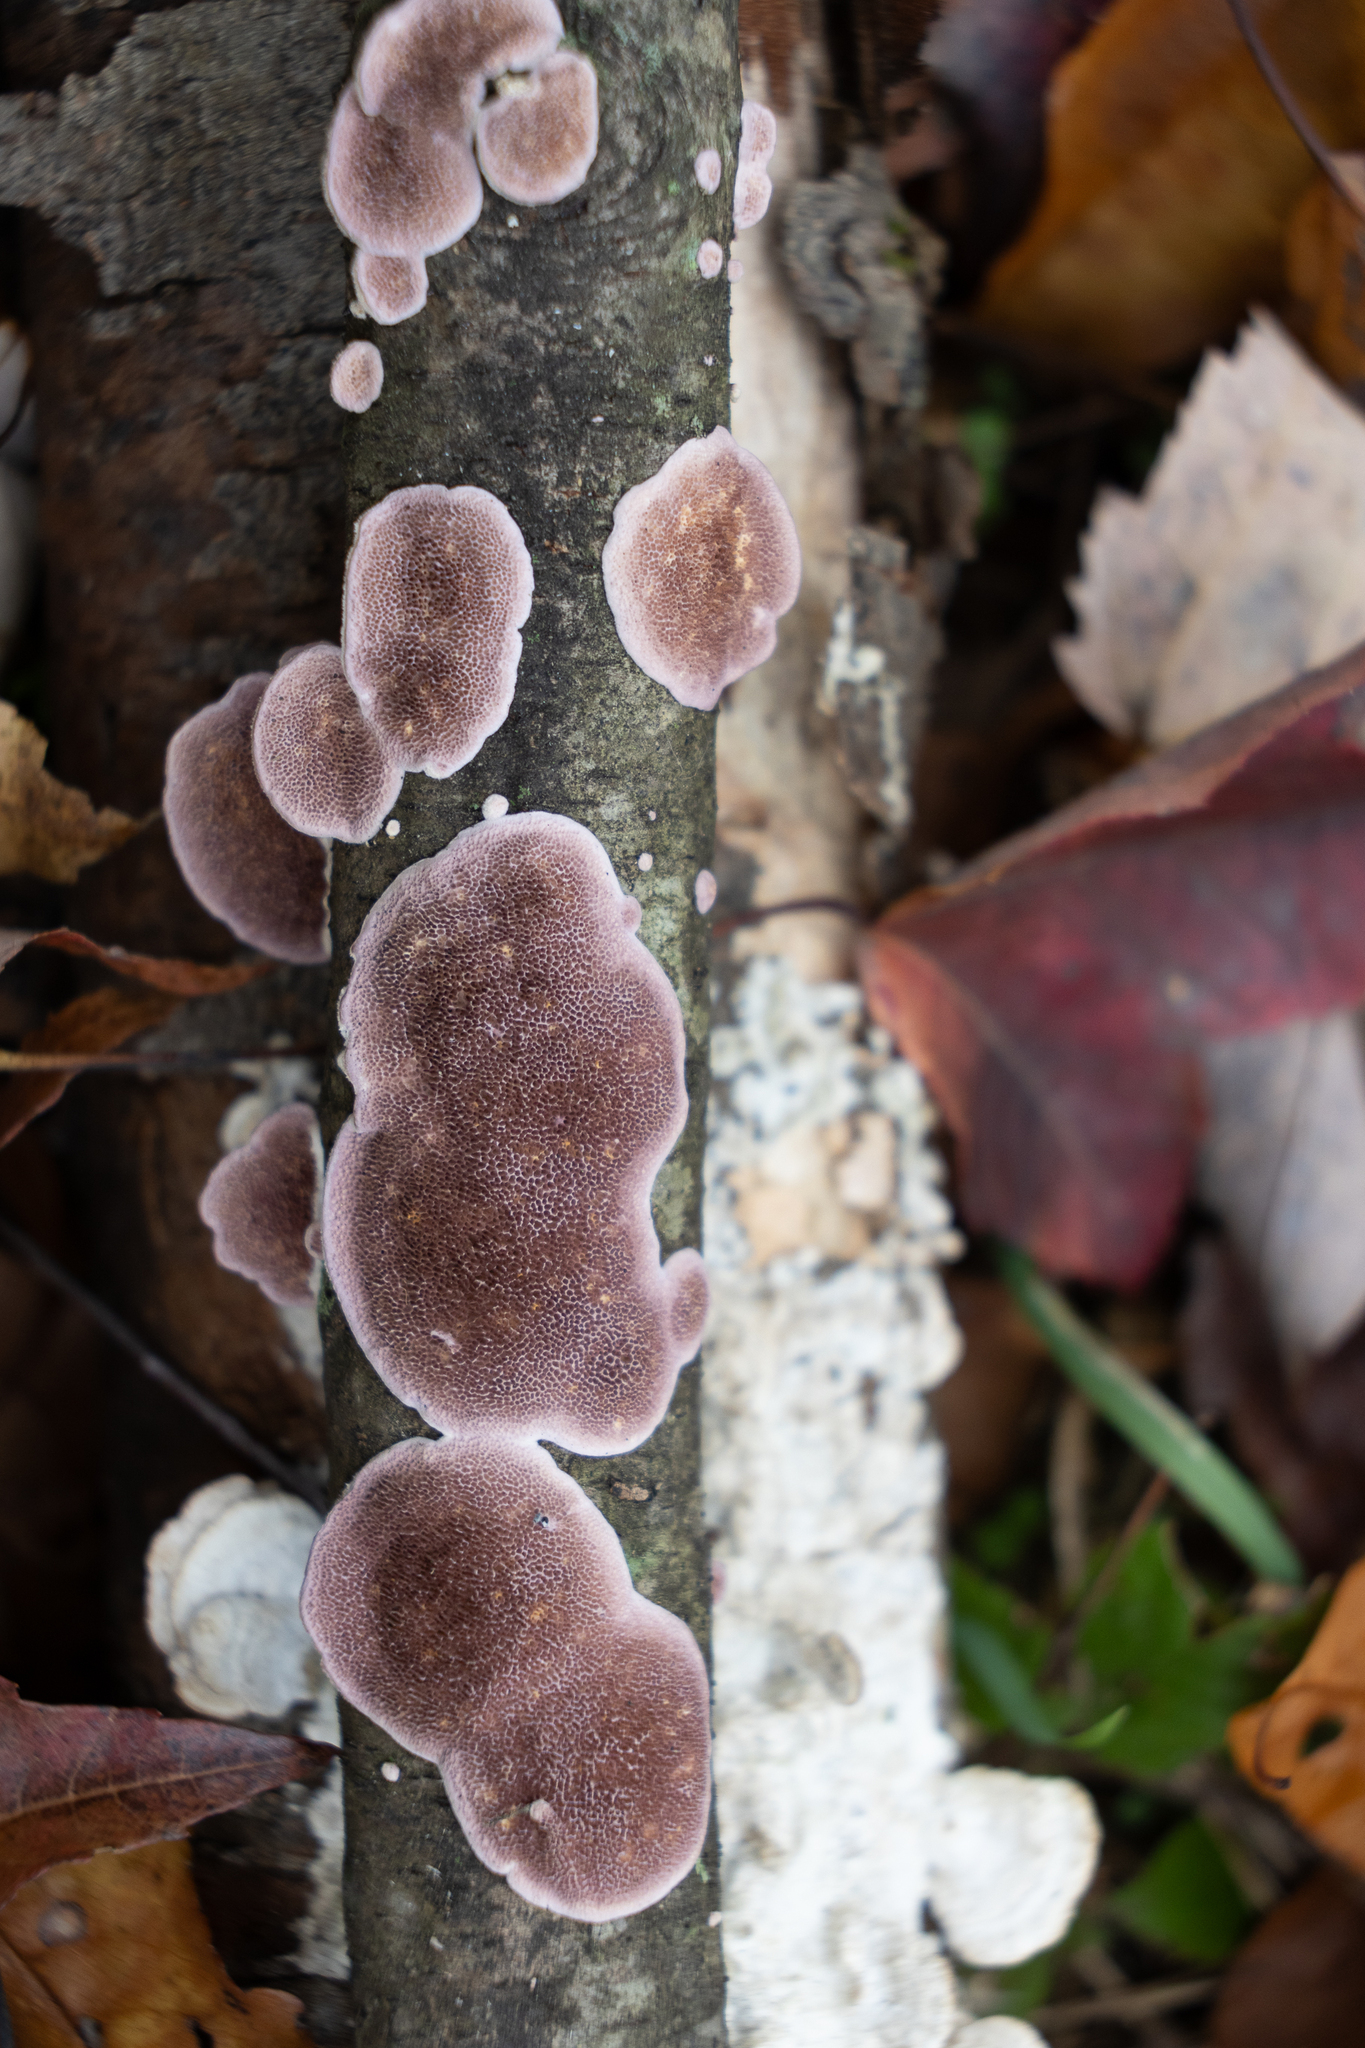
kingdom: Fungi
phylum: Basidiomycota
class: Agaricomycetes
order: Hymenochaetales
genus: Trichaptum
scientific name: Trichaptum biforme
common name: Violet-toothed polypore
